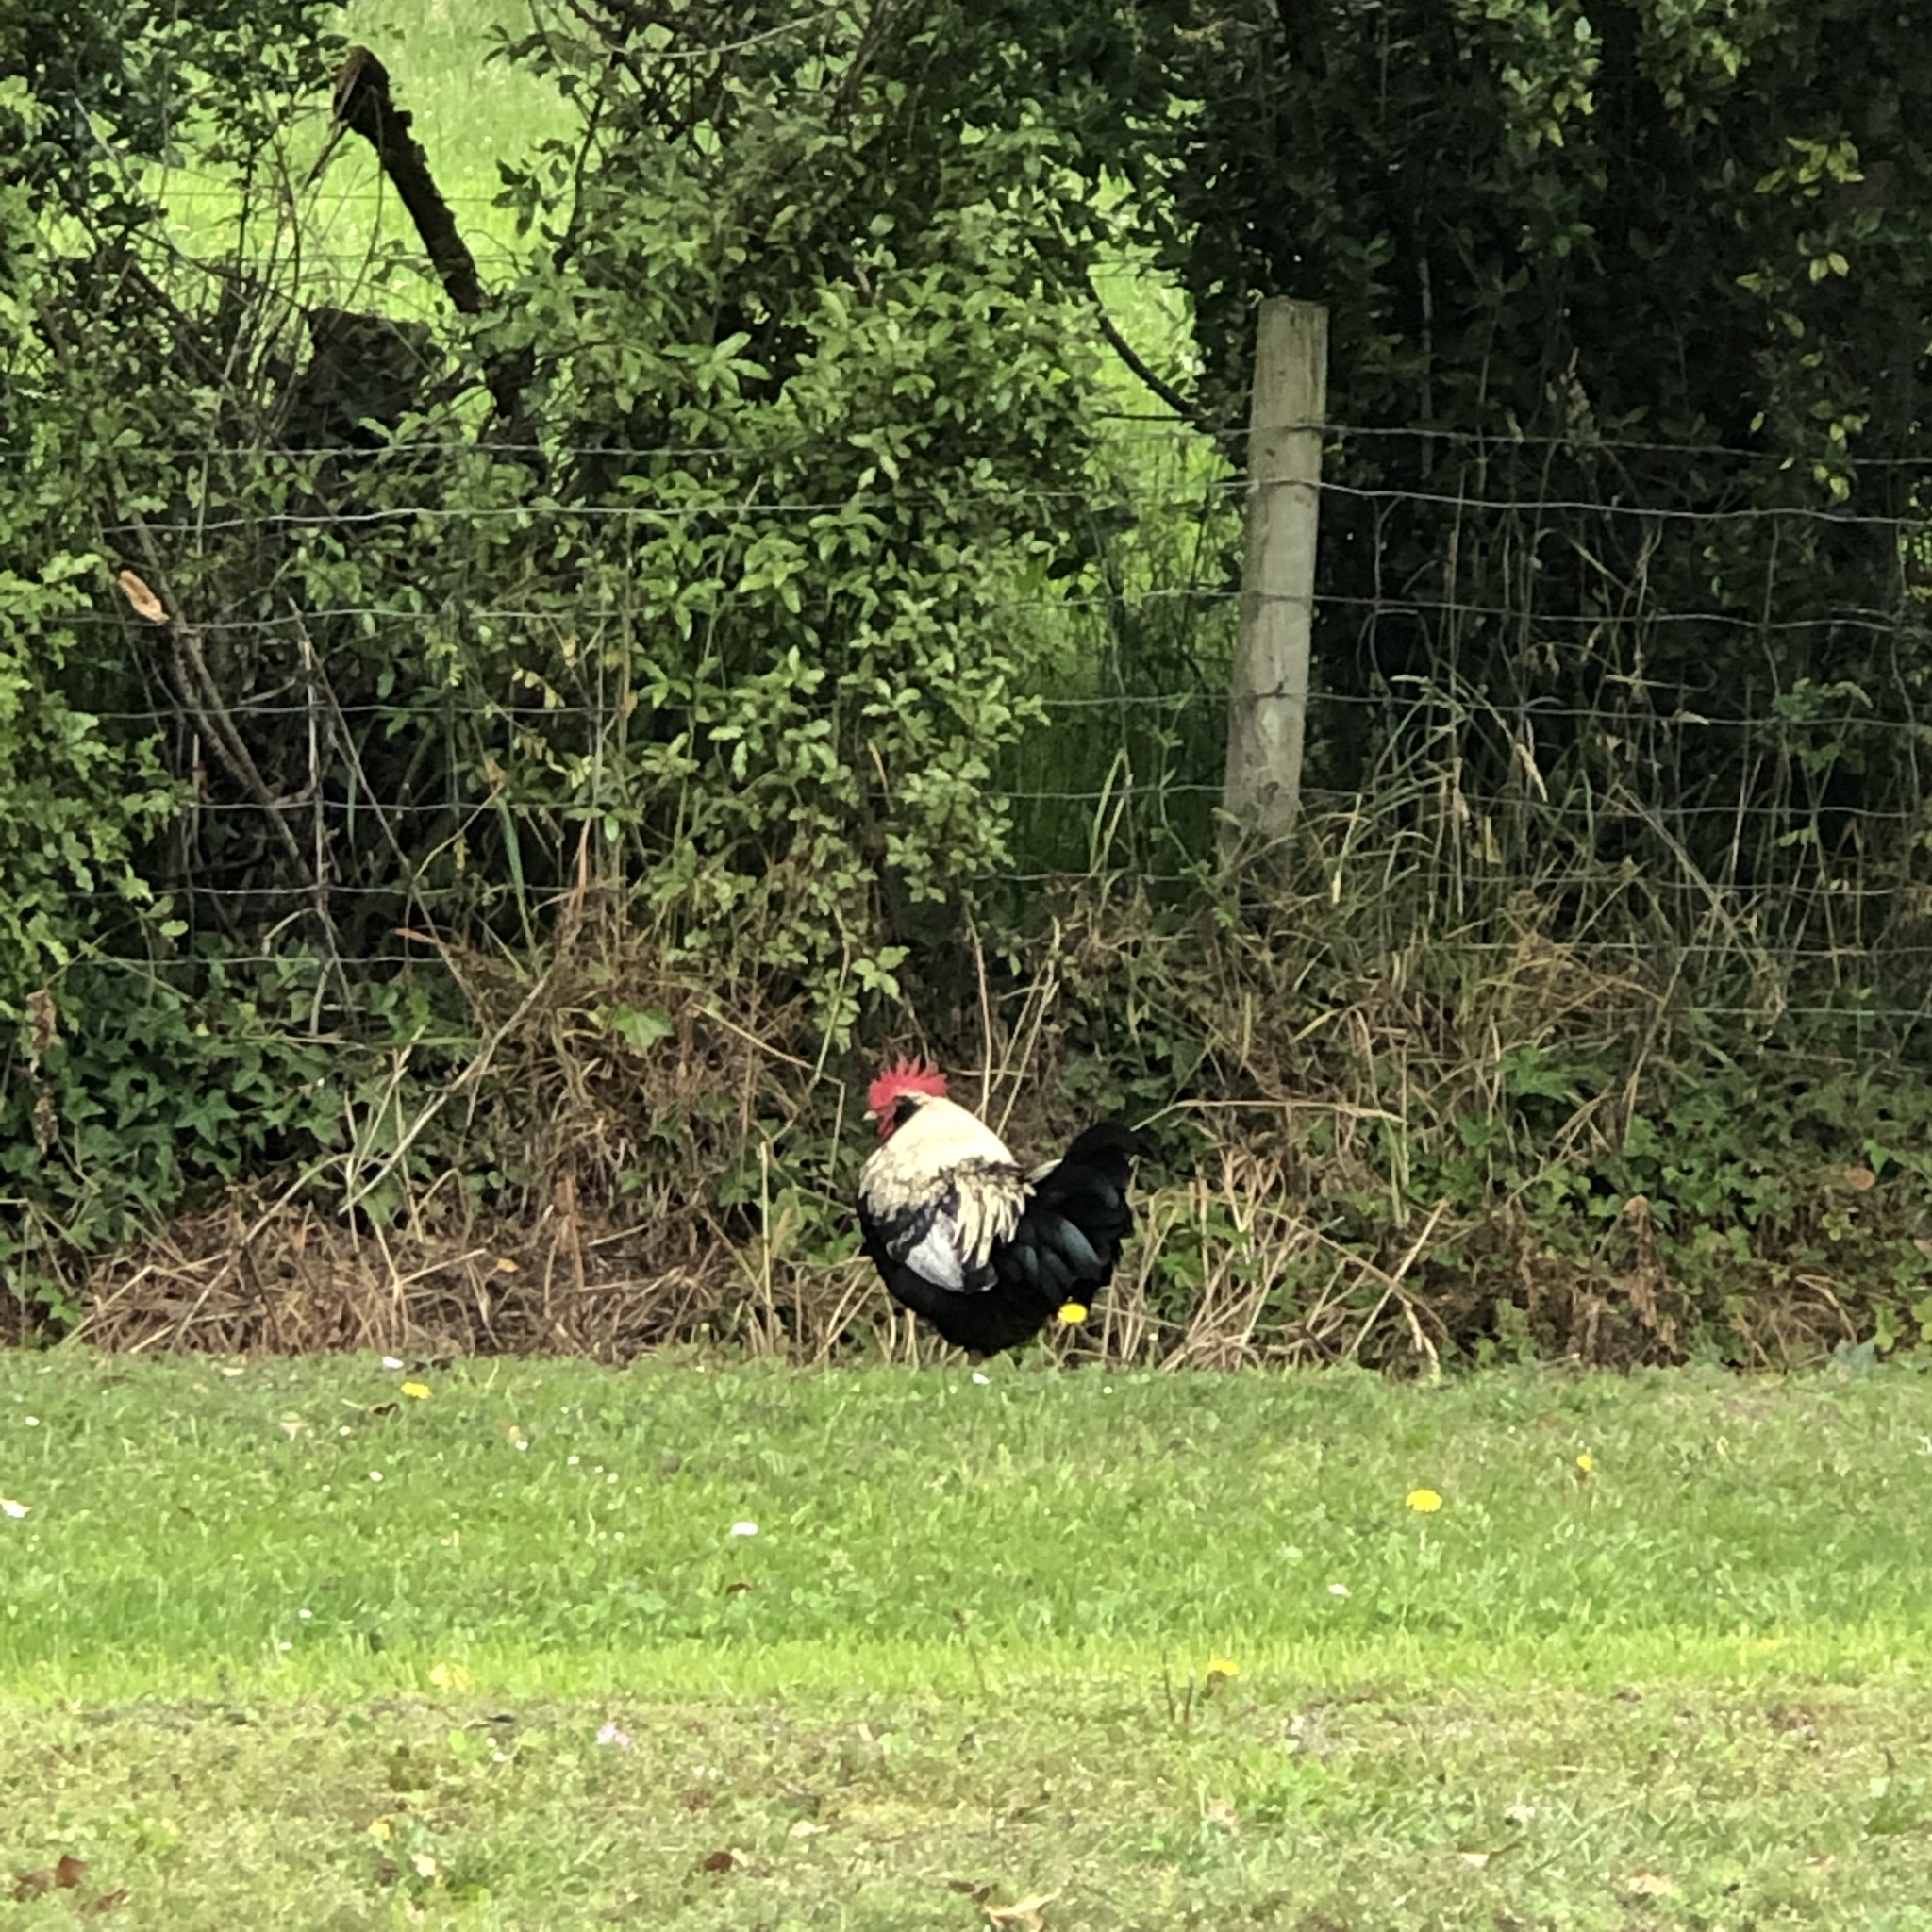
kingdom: Animalia
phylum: Chordata
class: Aves
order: Galliformes
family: Phasianidae
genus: Gallus
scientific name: Gallus gallus
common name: Red junglefowl
